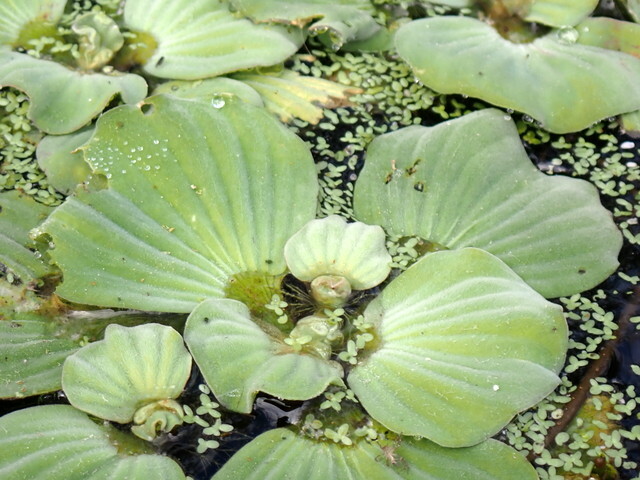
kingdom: Plantae
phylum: Tracheophyta
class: Liliopsida
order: Alismatales
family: Araceae
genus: Pistia
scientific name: Pistia stratiotes
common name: Water lettuce
